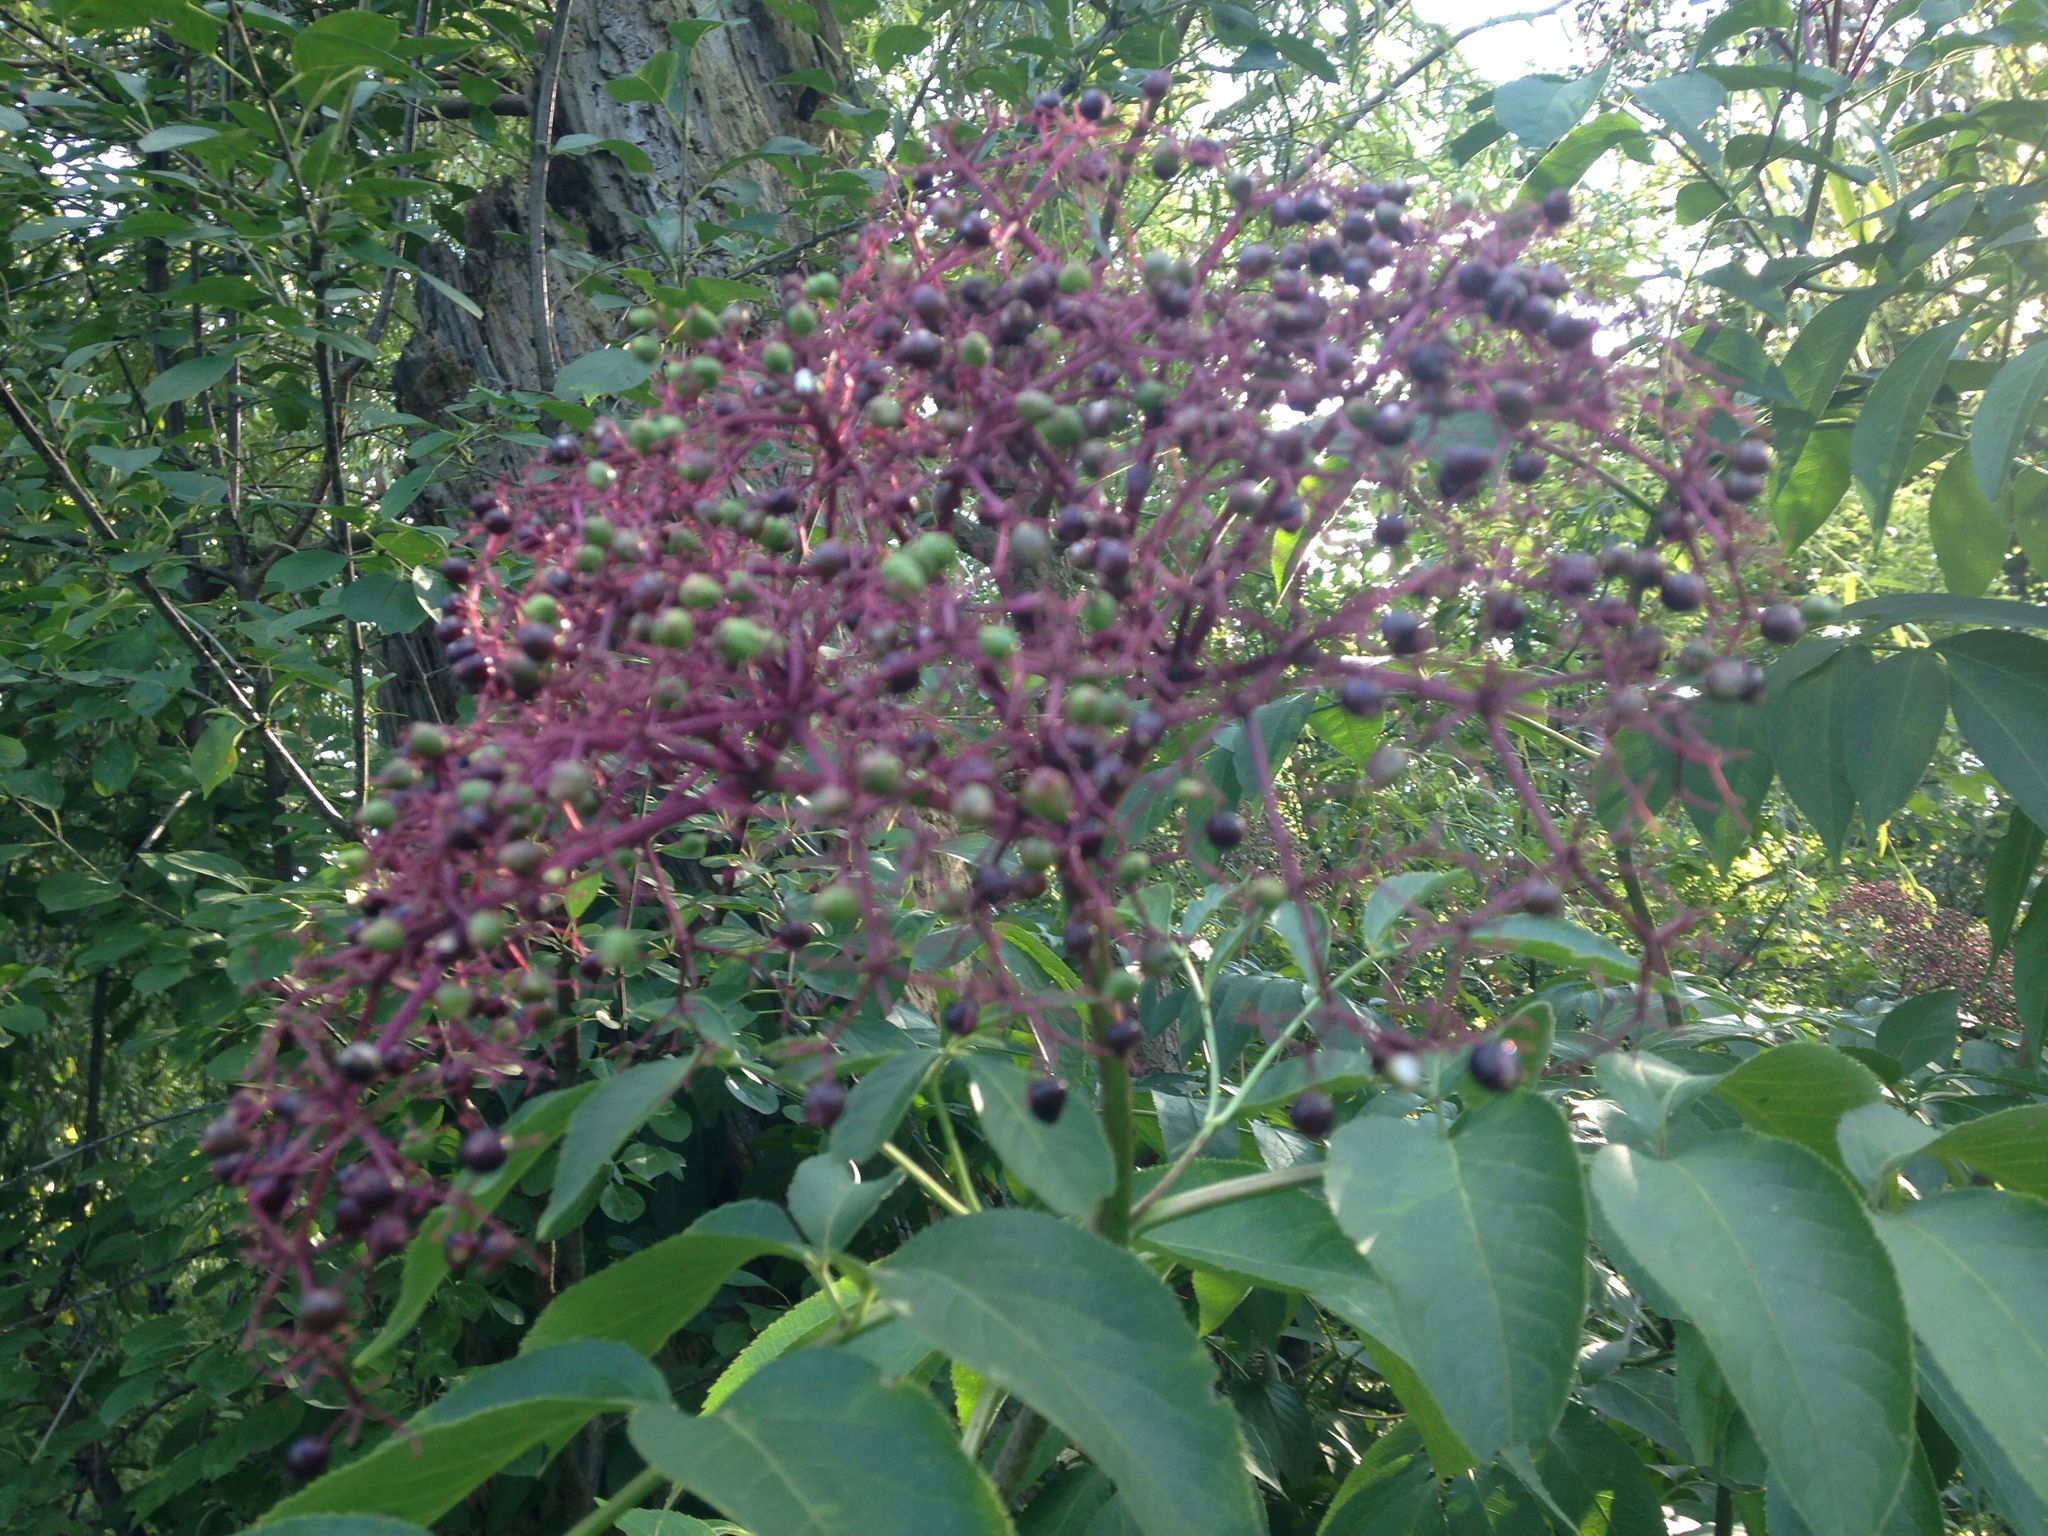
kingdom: Plantae
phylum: Tracheophyta
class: Magnoliopsida
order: Dipsacales
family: Viburnaceae
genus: Sambucus
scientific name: Sambucus canadensis
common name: American elder
